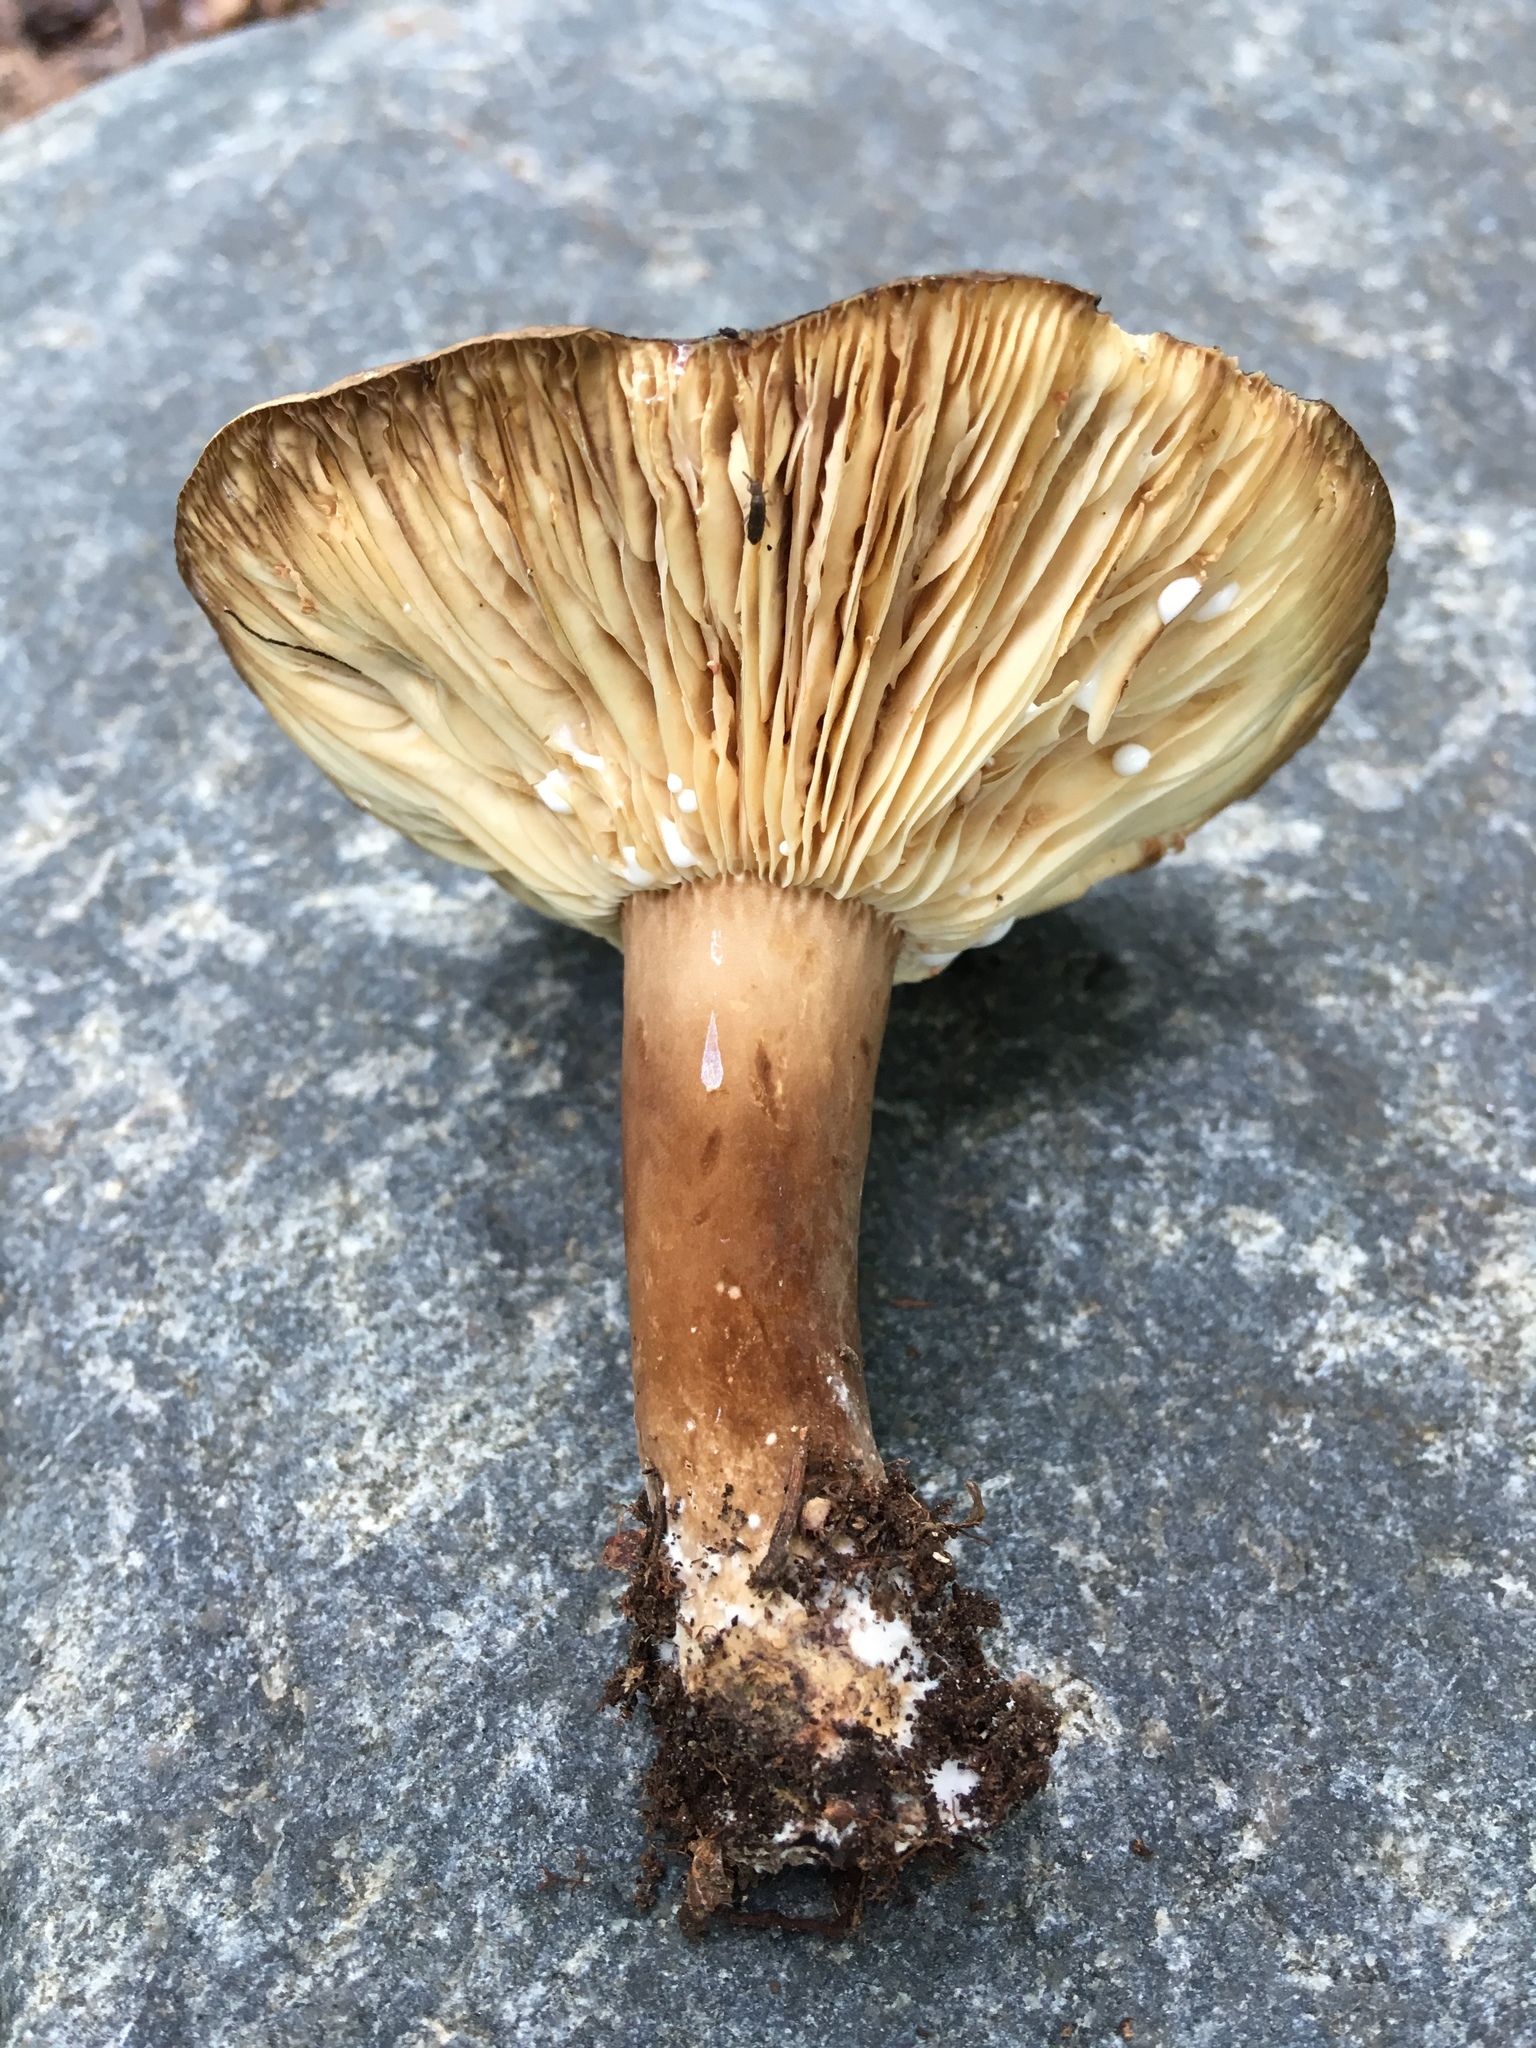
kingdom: Fungi
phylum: Basidiomycota
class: Agaricomycetes
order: Russulales
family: Russulaceae
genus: Lactarius
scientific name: Lactarius fuliginosus
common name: Sooty milkcap
